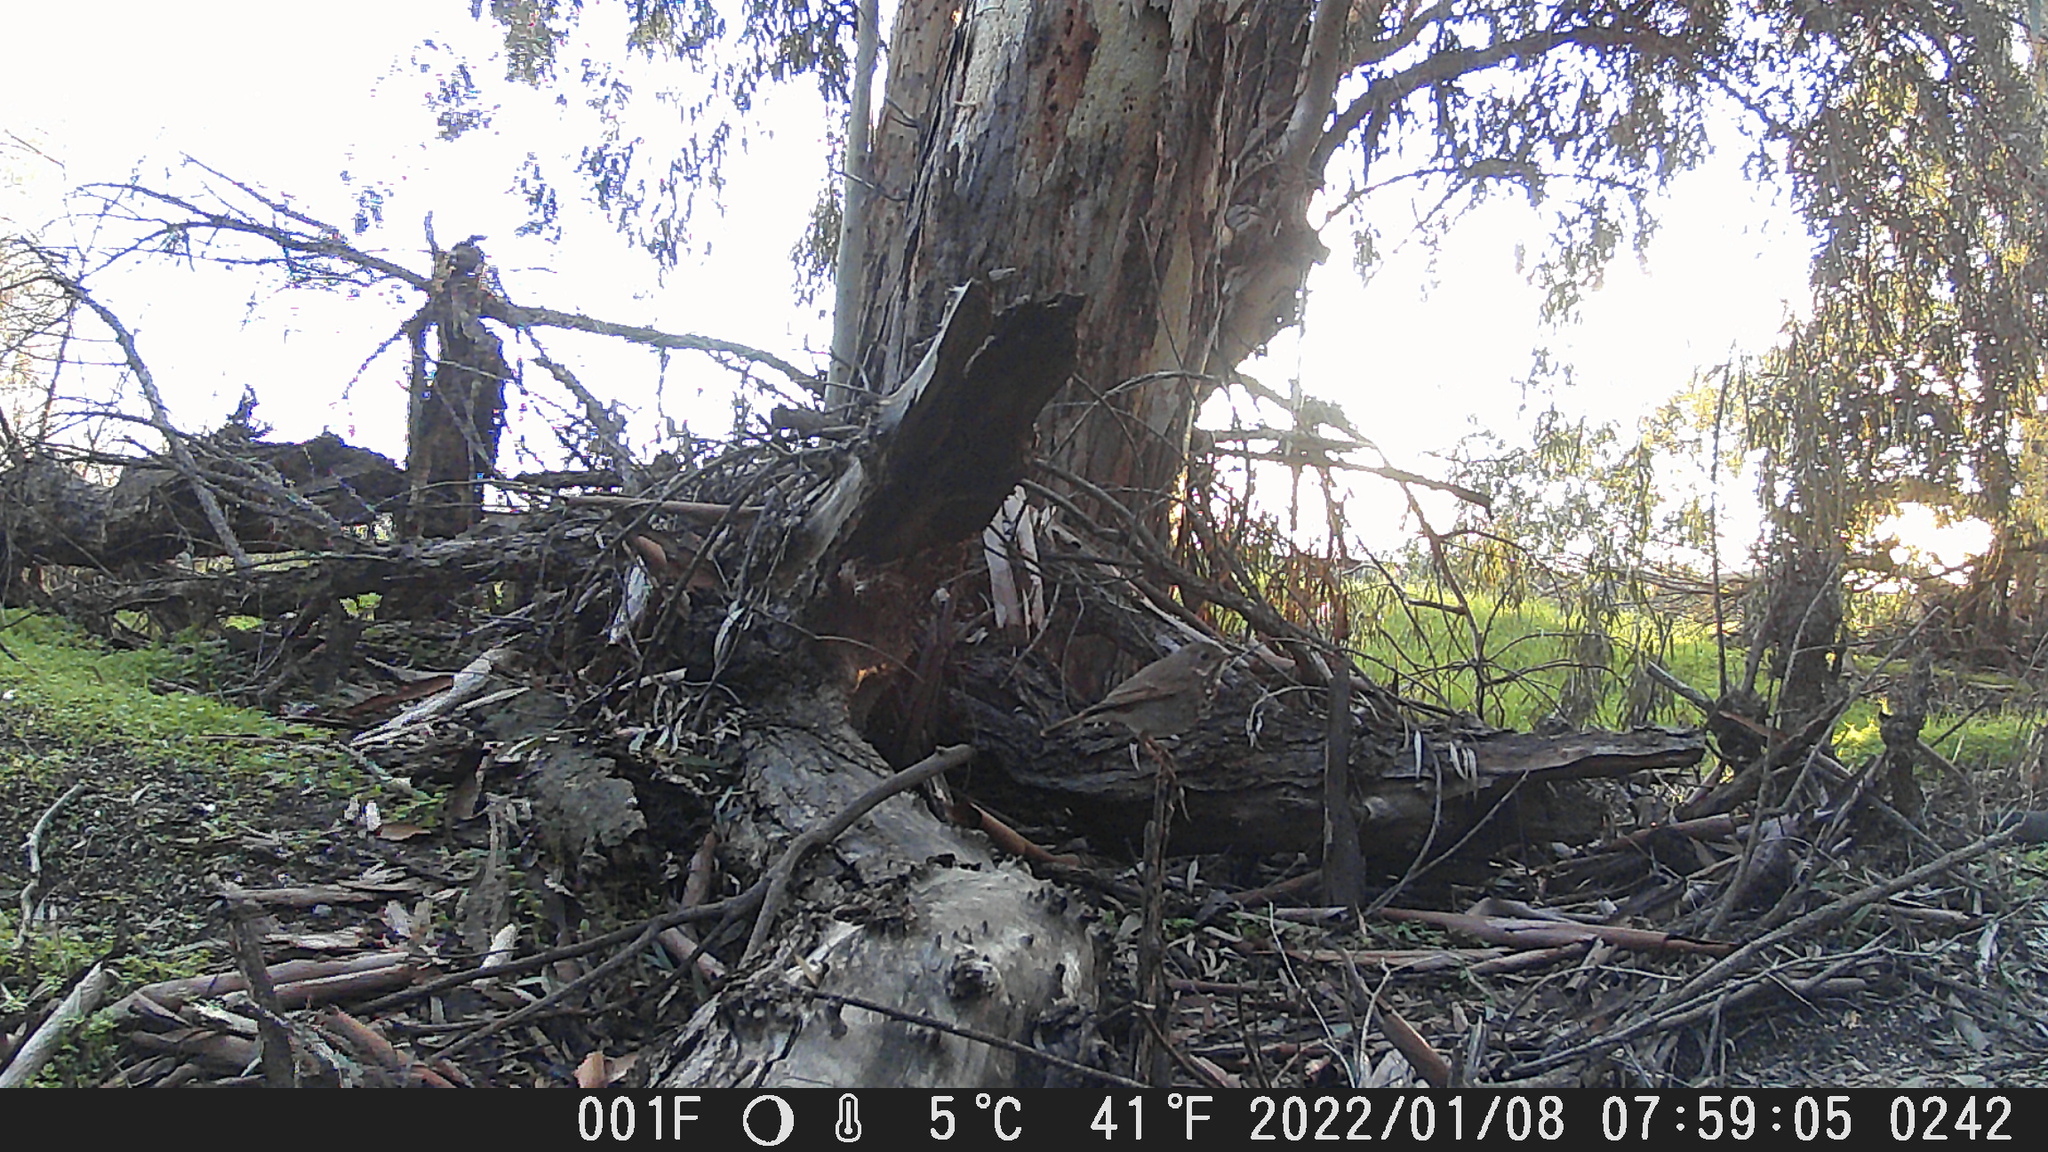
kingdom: Animalia
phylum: Chordata
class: Aves
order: Passeriformes
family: Turdidae
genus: Catharus
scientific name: Catharus guttatus
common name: Hermit thrush
